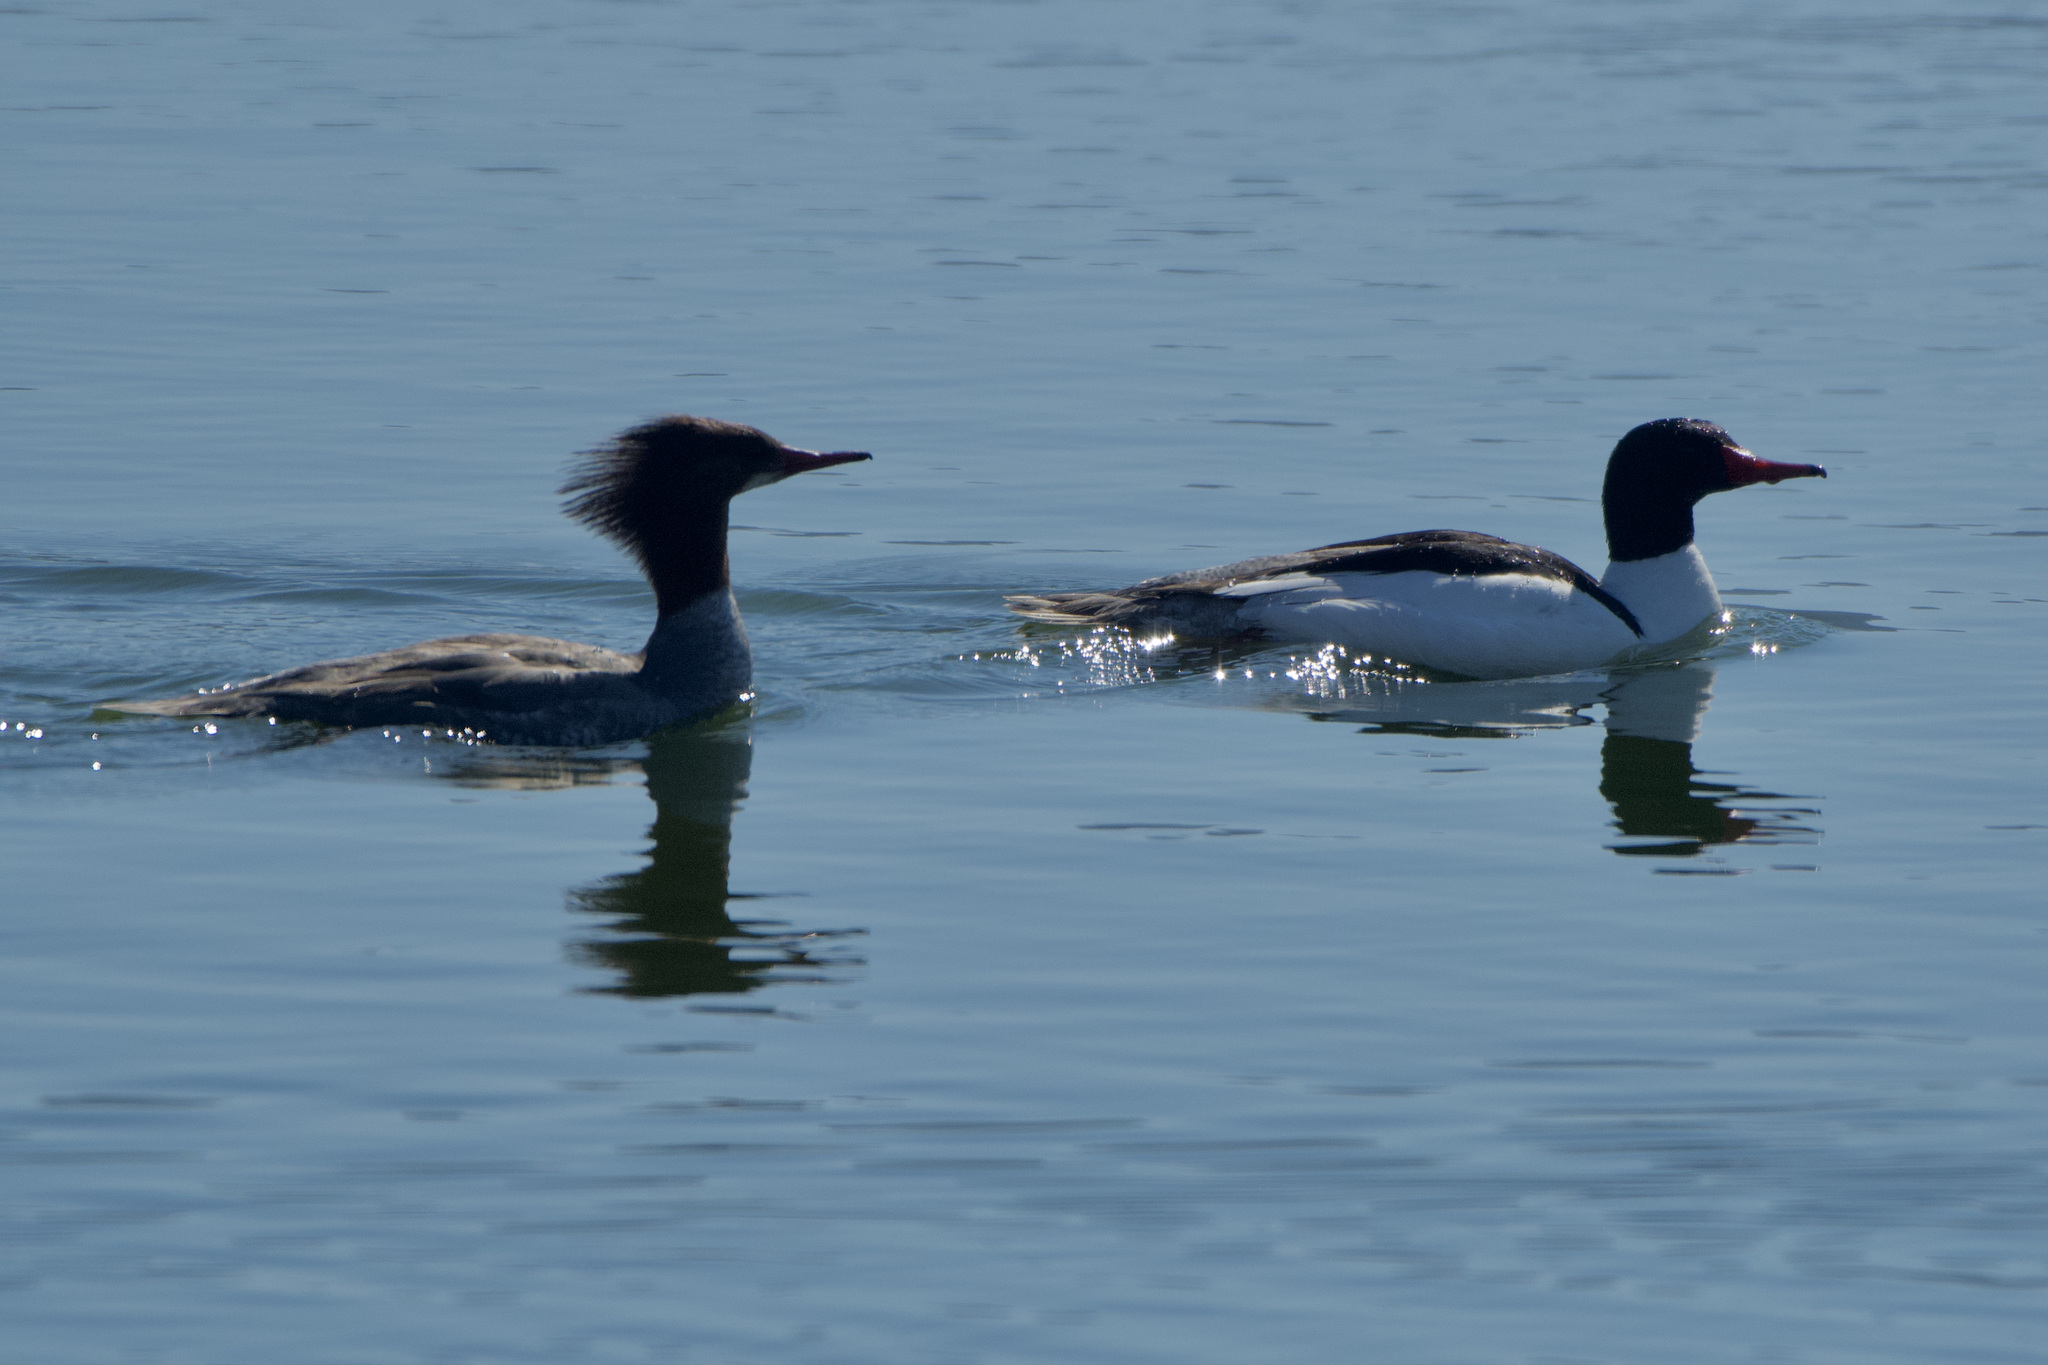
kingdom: Animalia
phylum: Chordata
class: Aves
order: Anseriformes
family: Anatidae
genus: Mergus
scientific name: Mergus merganser
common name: Common merganser
